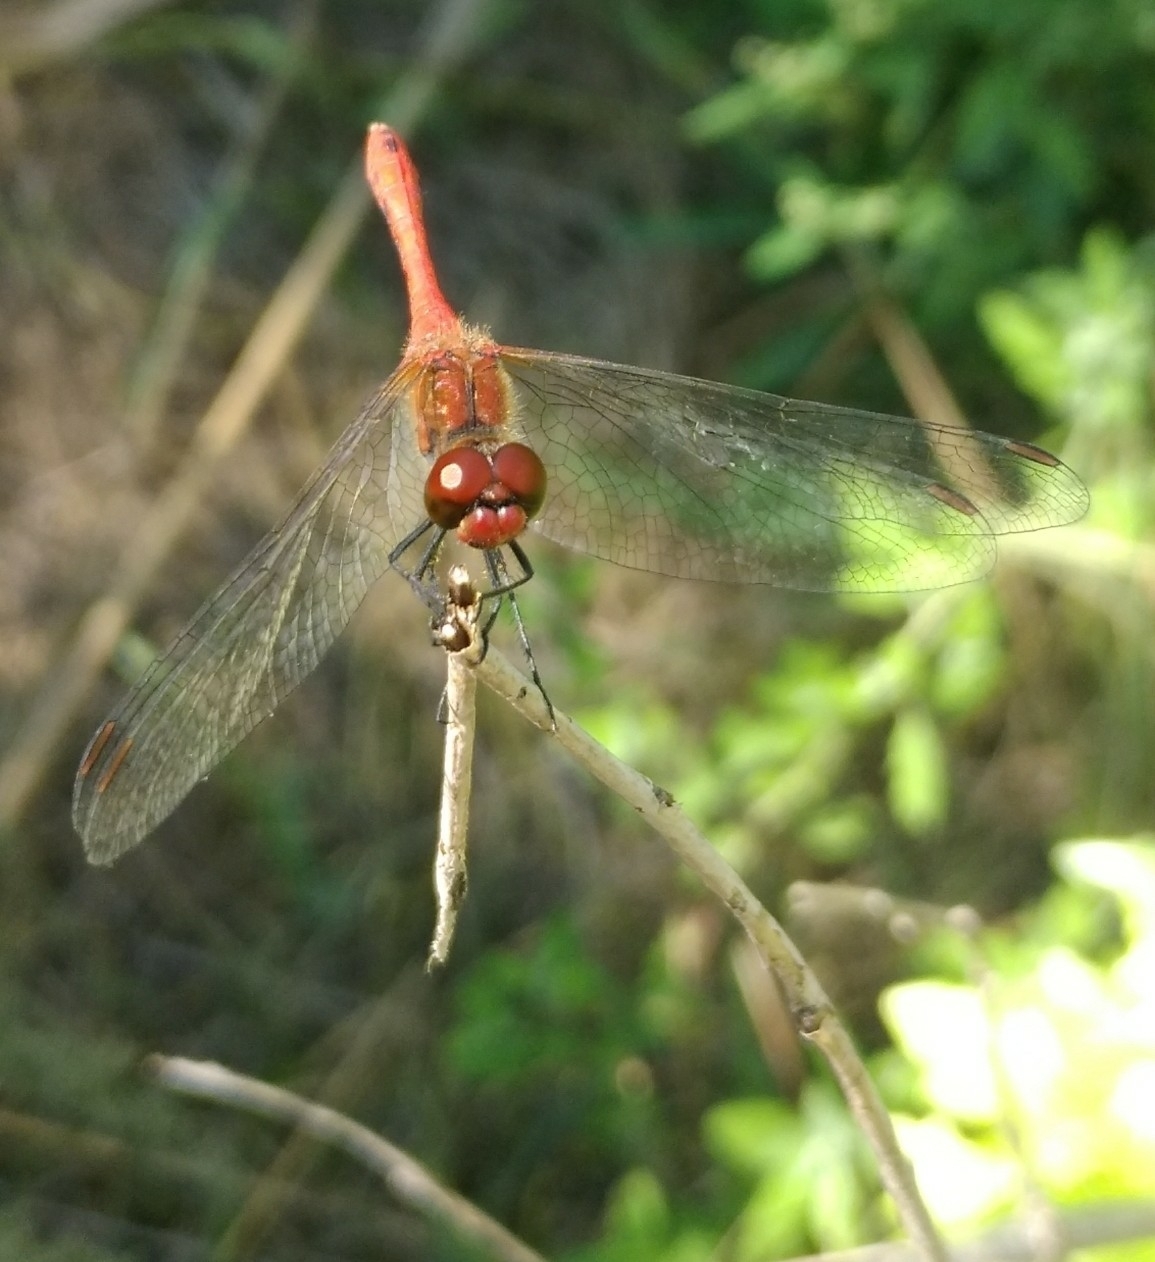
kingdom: Animalia
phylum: Arthropoda
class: Insecta
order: Odonata
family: Libellulidae
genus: Sympetrum
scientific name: Sympetrum sanguineum
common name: Ruddy darter
